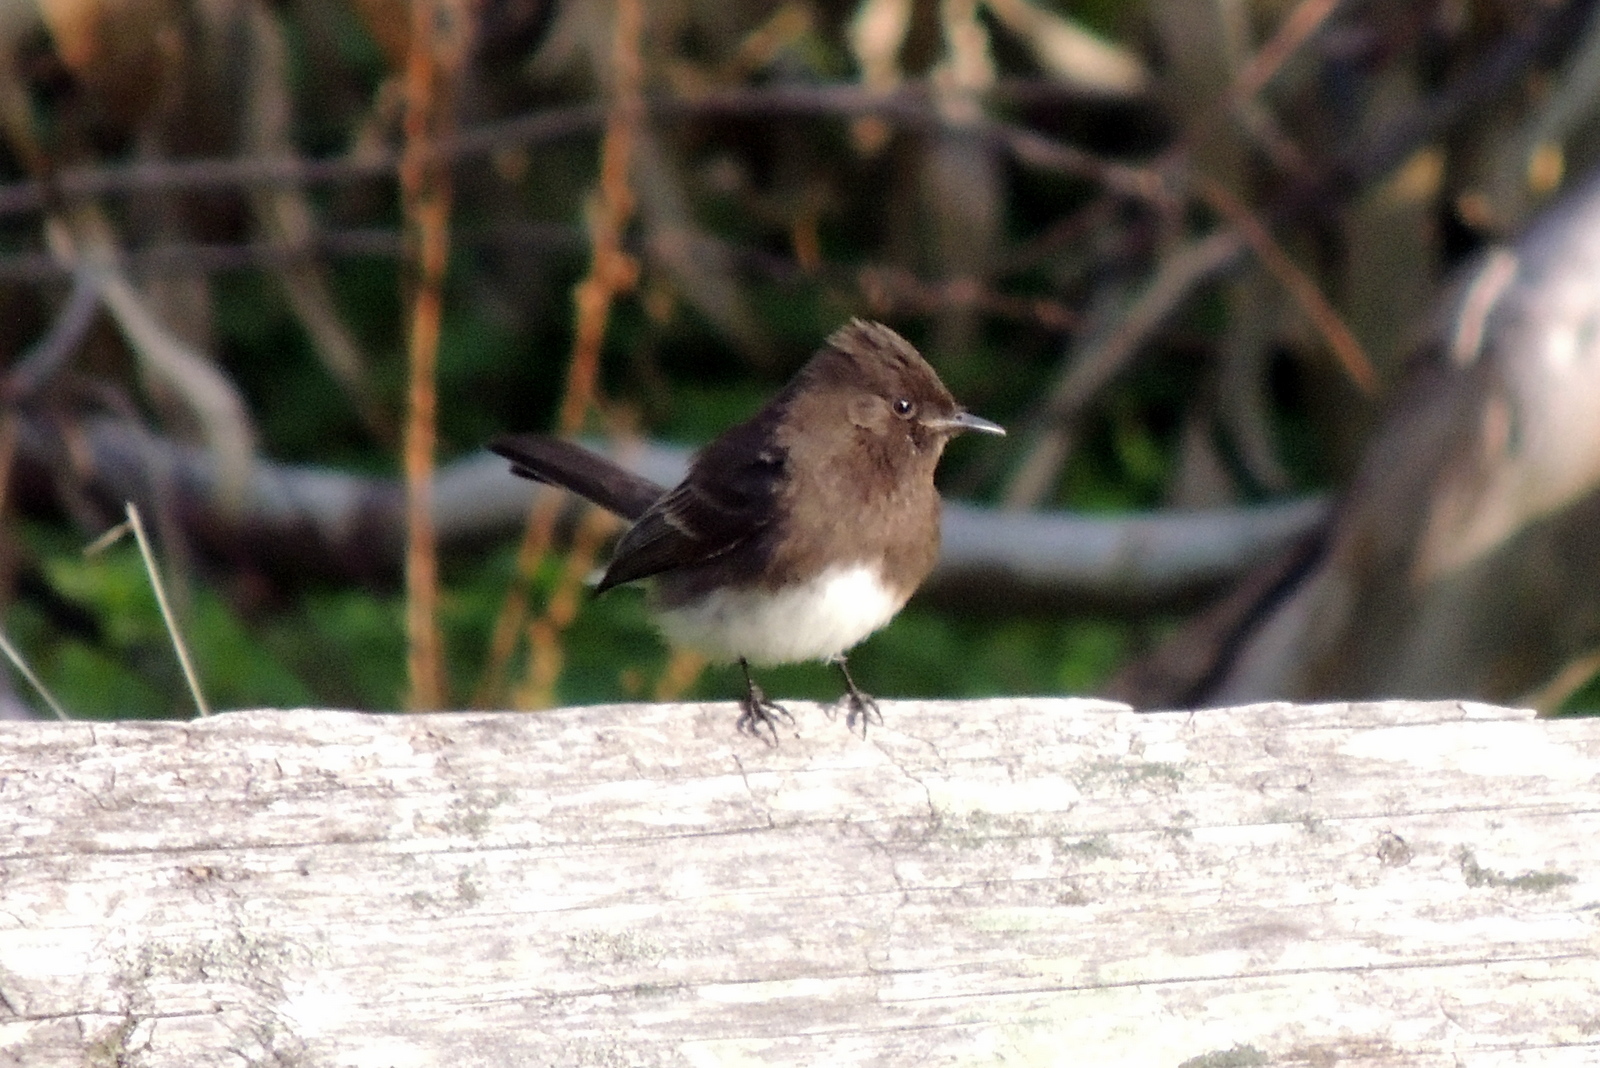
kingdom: Animalia
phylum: Chordata
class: Aves
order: Passeriformes
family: Tyrannidae
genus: Sayornis
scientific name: Sayornis nigricans
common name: Black phoebe
